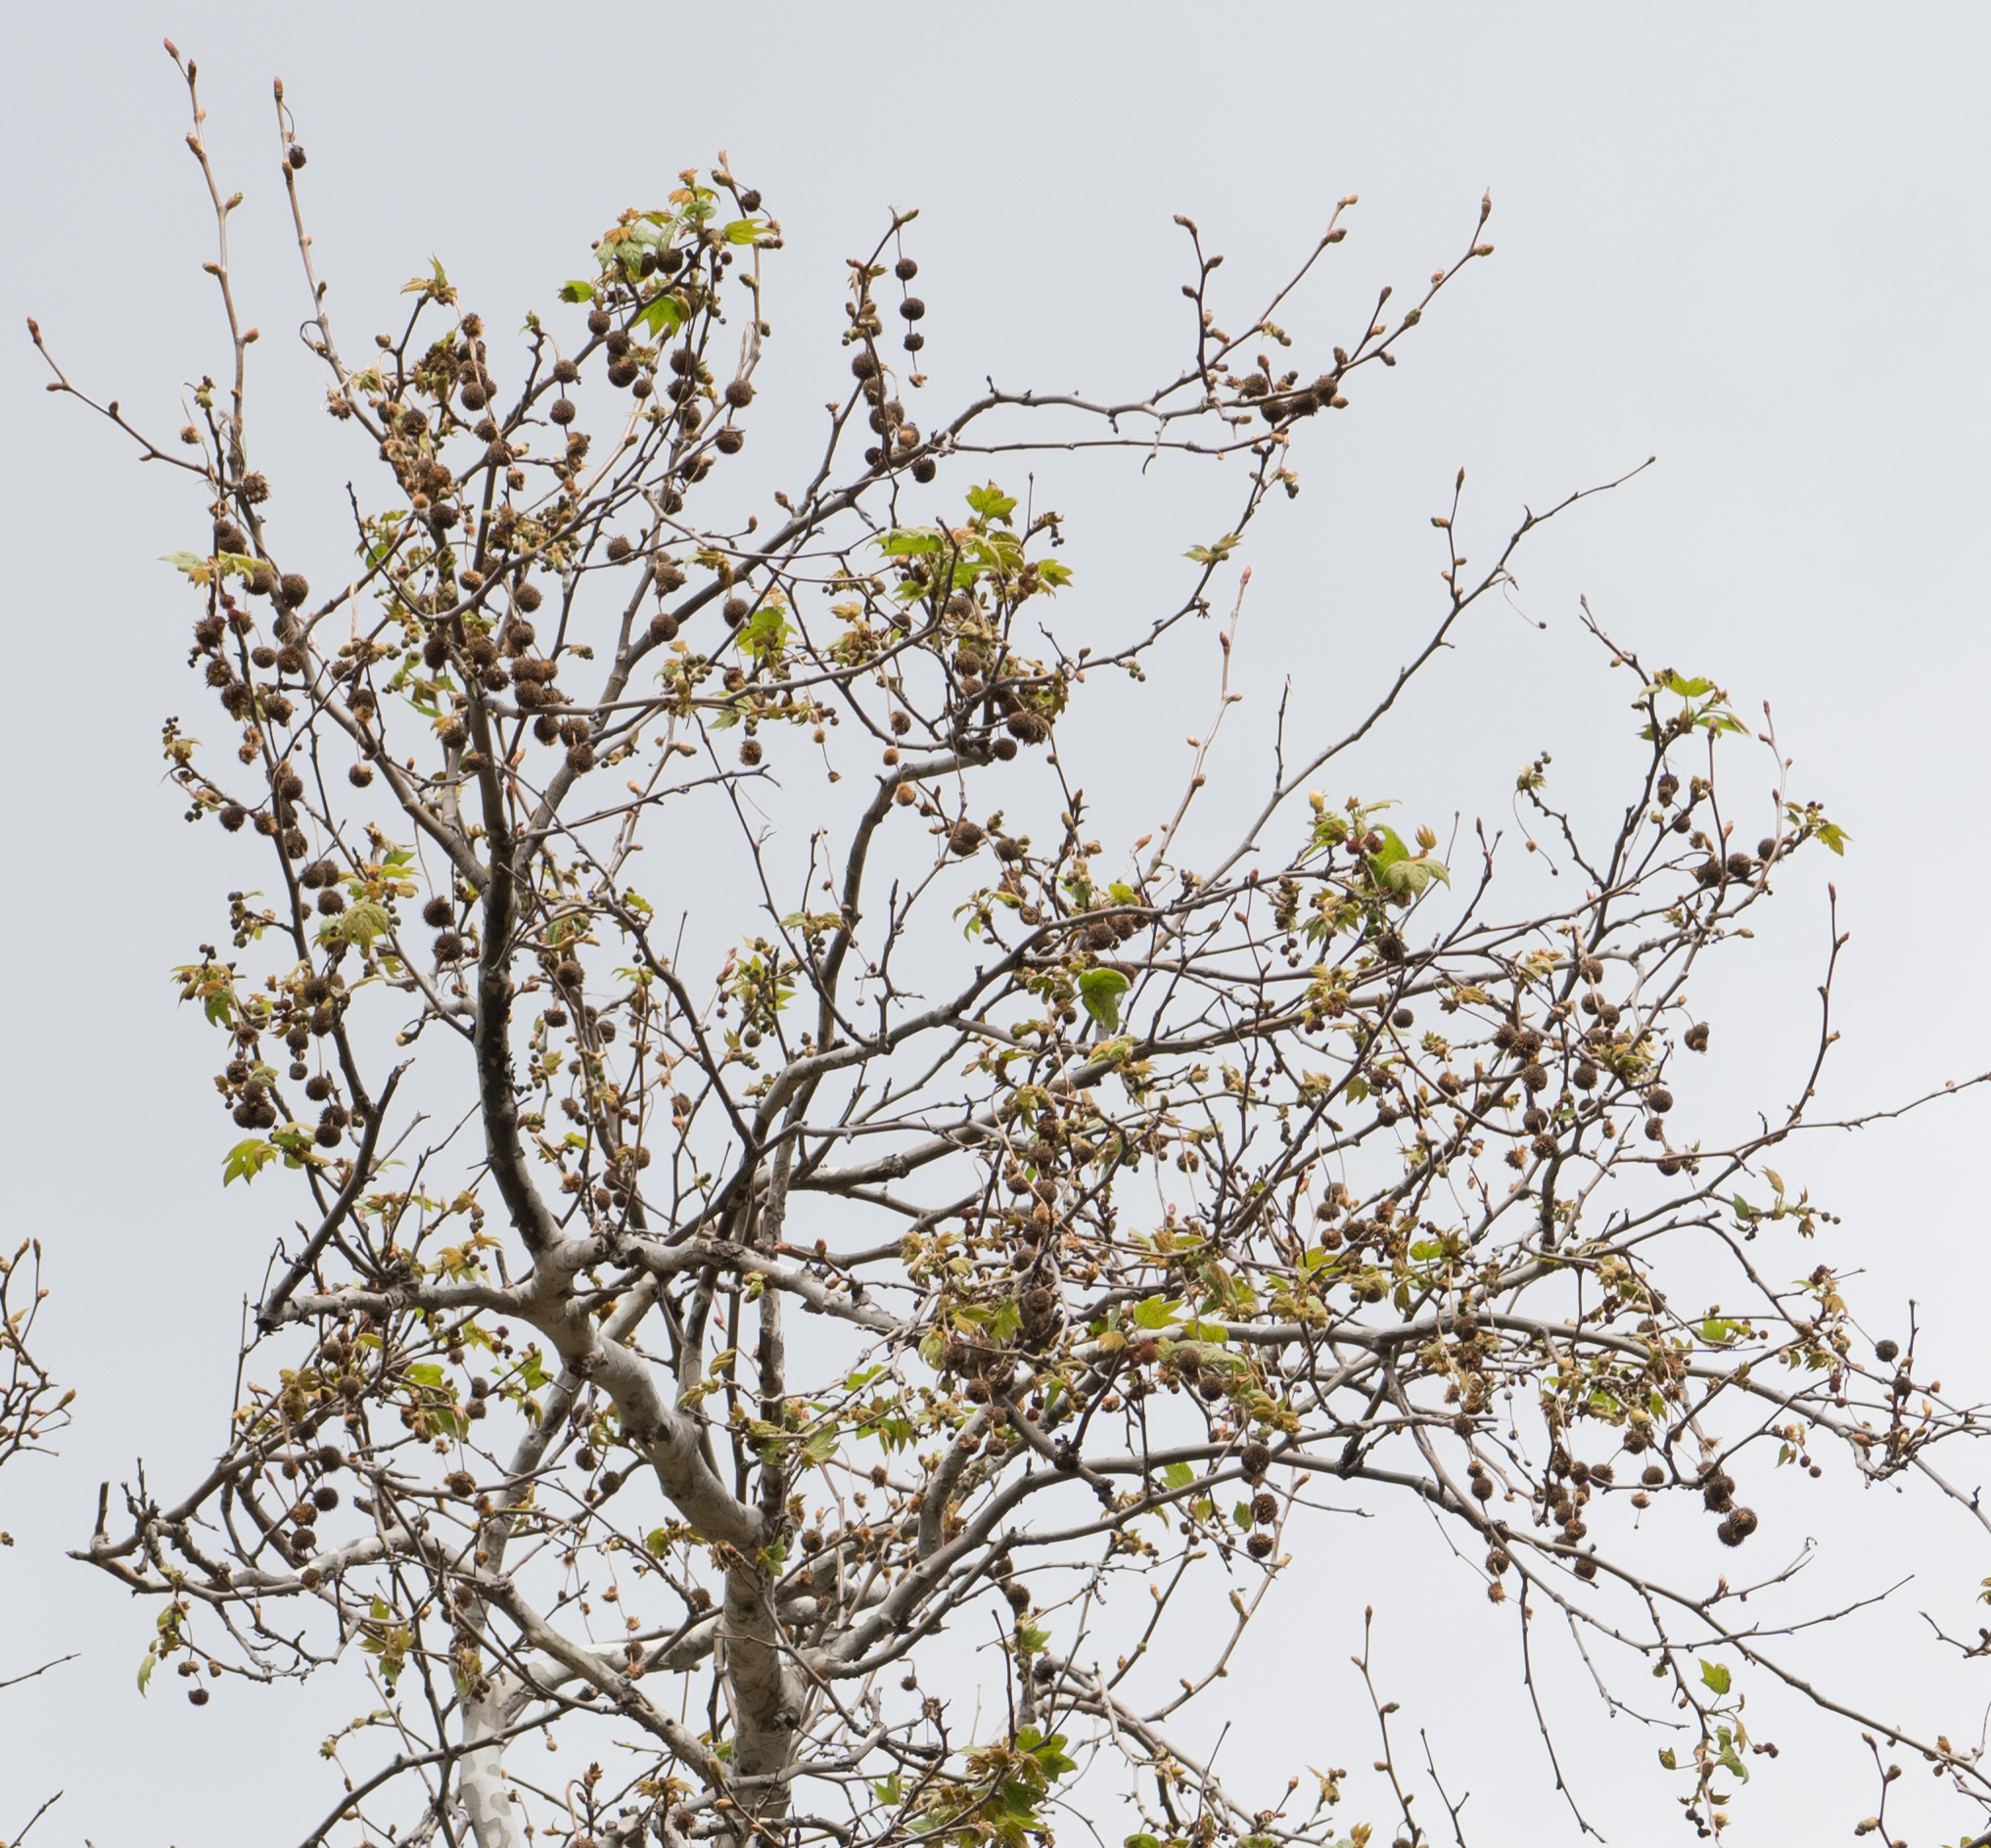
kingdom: Plantae
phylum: Tracheophyta
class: Magnoliopsida
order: Proteales
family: Platanaceae
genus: Platanus
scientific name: Platanus racemosa
